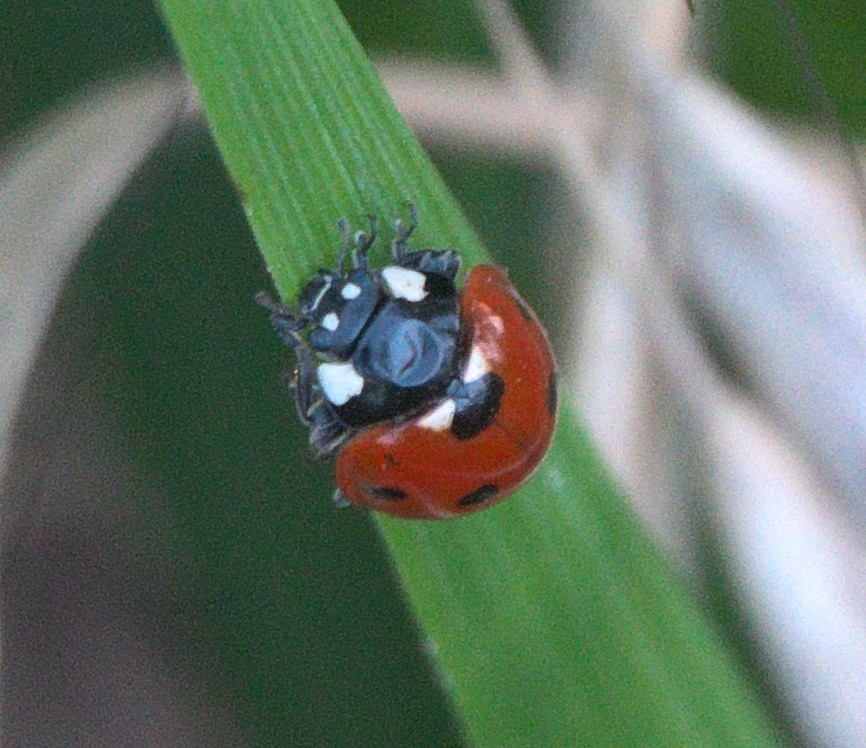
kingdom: Animalia
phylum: Arthropoda
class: Insecta
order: Coleoptera
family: Coccinellidae
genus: Coccinella
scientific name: Coccinella septempunctata
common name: Sevenspotted lady beetle
